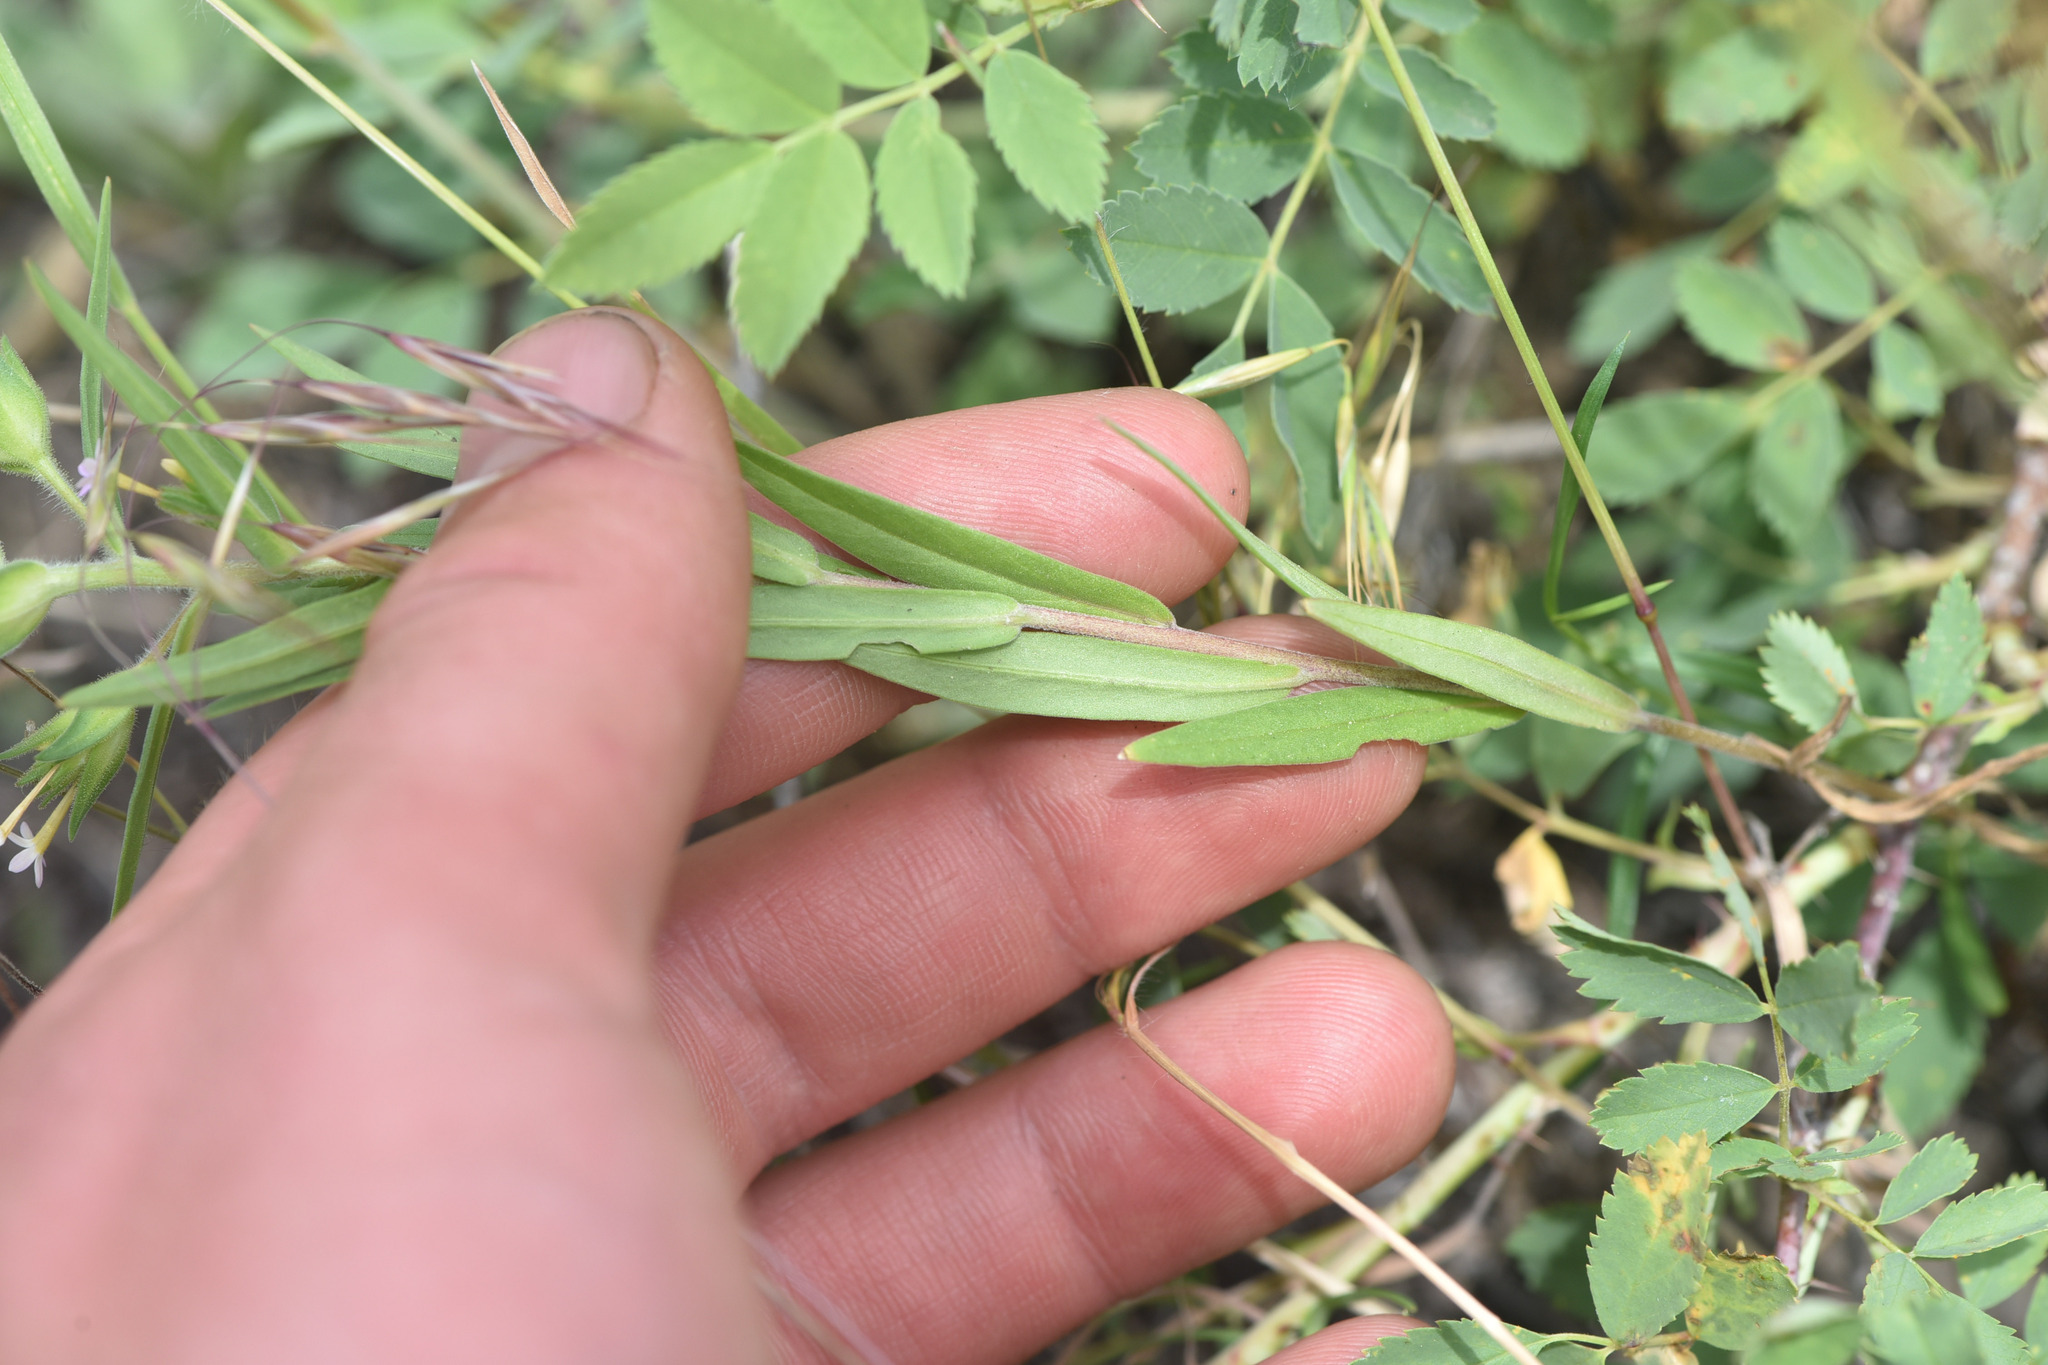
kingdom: Plantae
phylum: Tracheophyta
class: Magnoliopsida
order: Ericales
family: Polemoniaceae
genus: Collomia
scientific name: Collomia linearis
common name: Tiny trumpet
